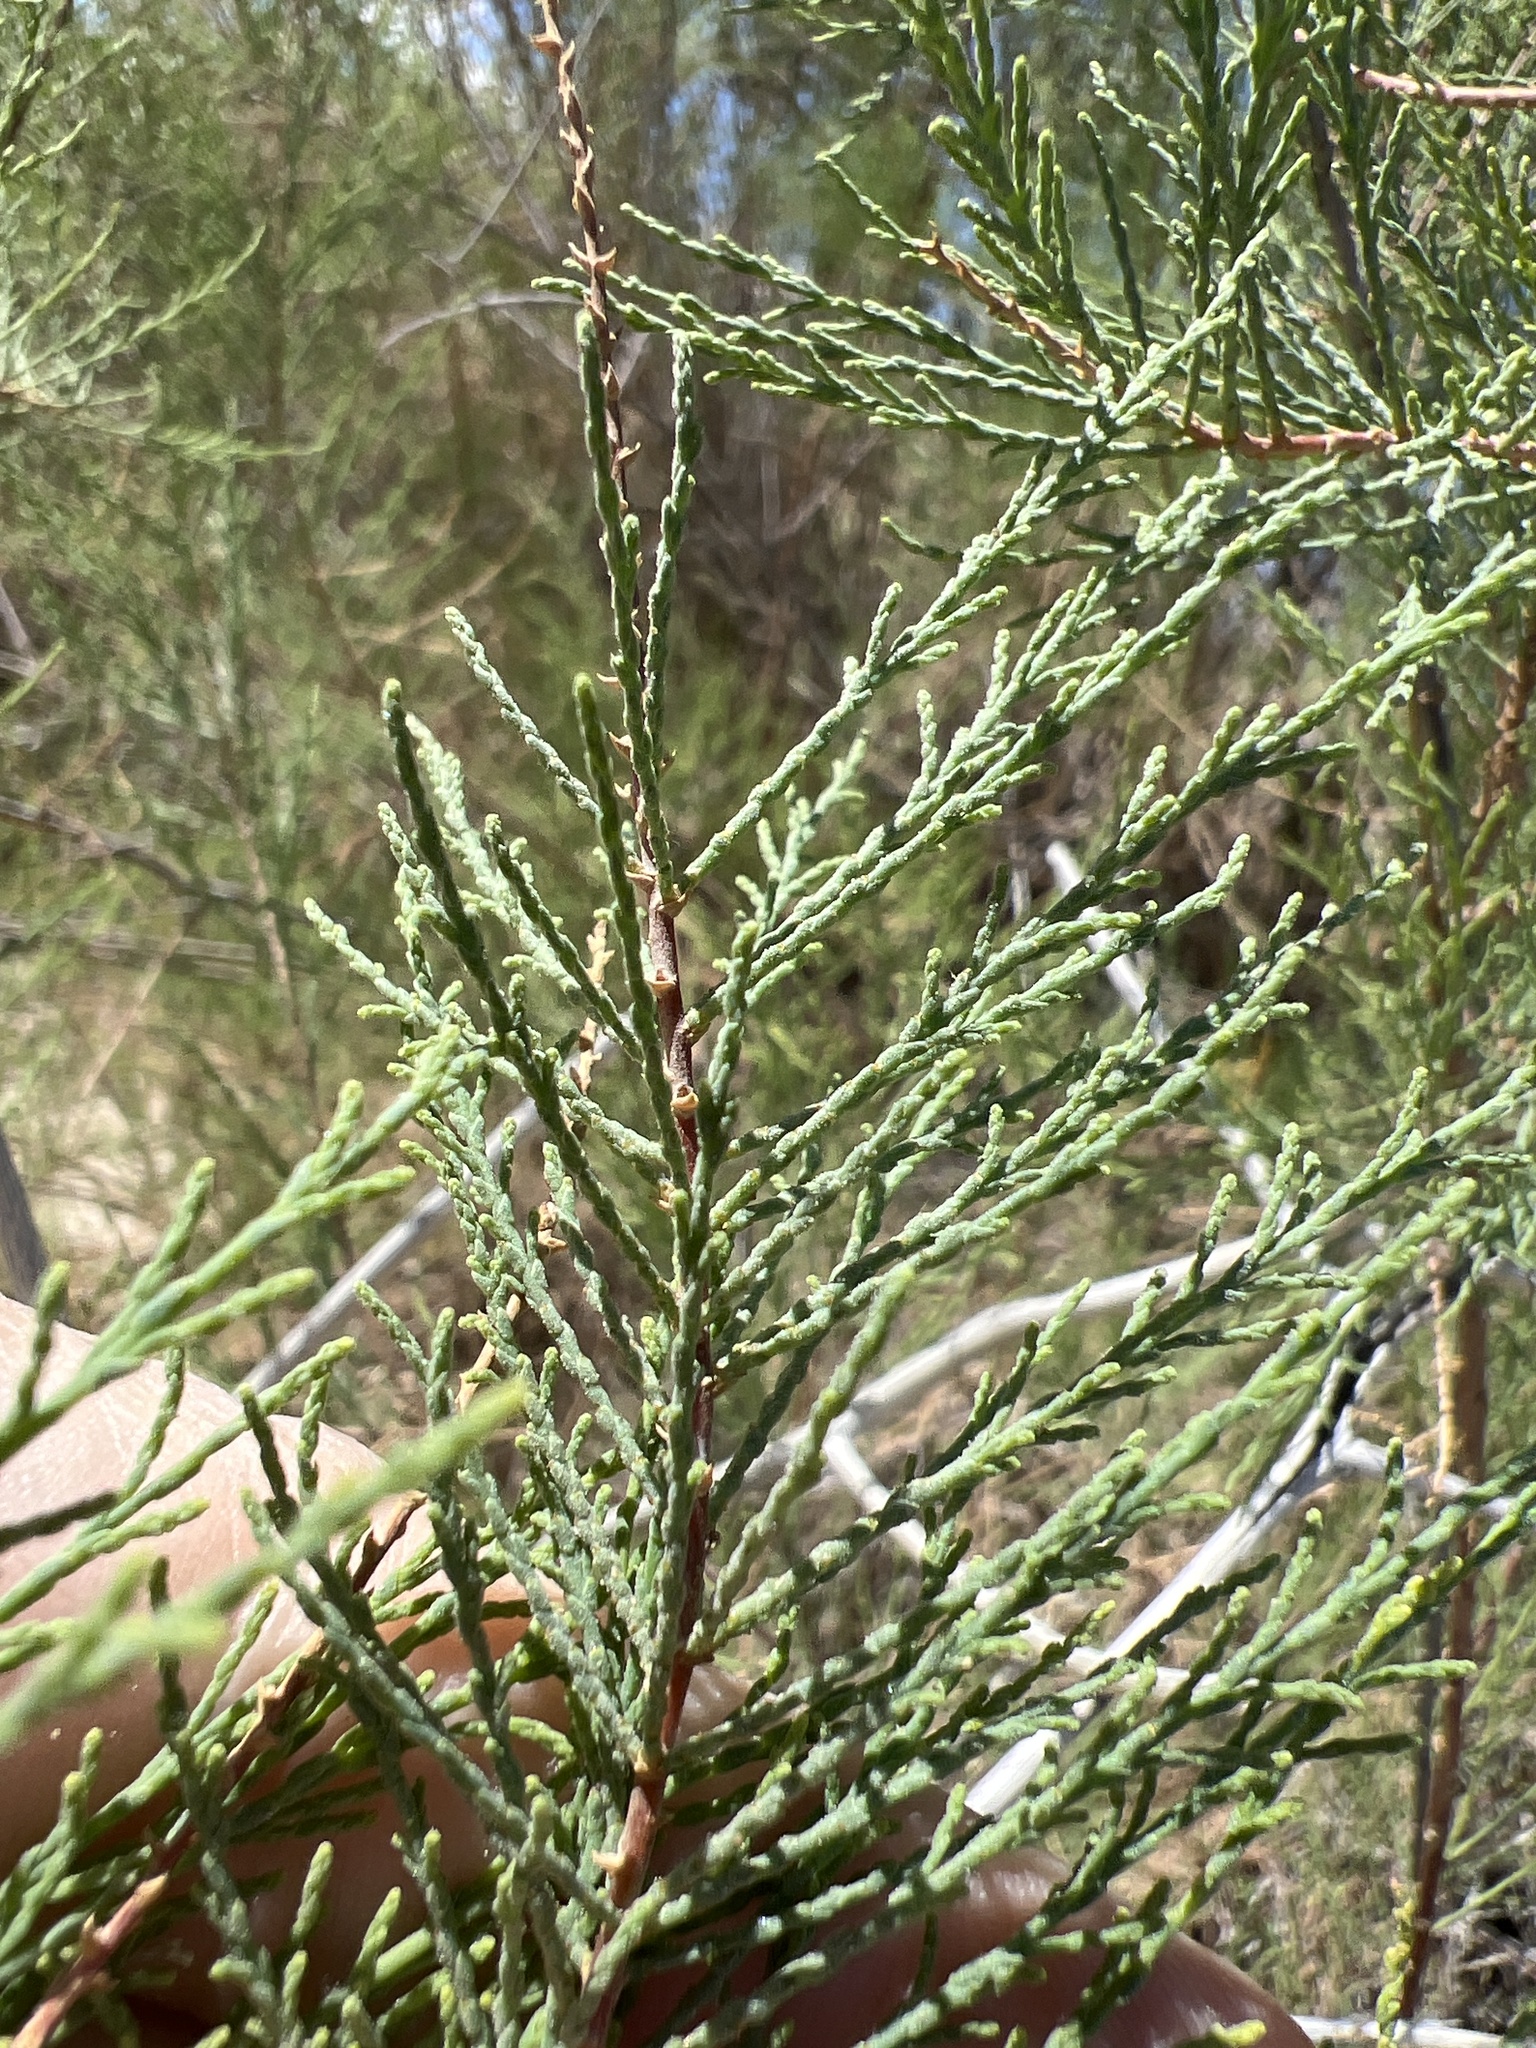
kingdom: Plantae
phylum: Tracheophyta
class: Magnoliopsida
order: Caryophyllales
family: Tamaricaceae
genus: Tamarix
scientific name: Tamarix
